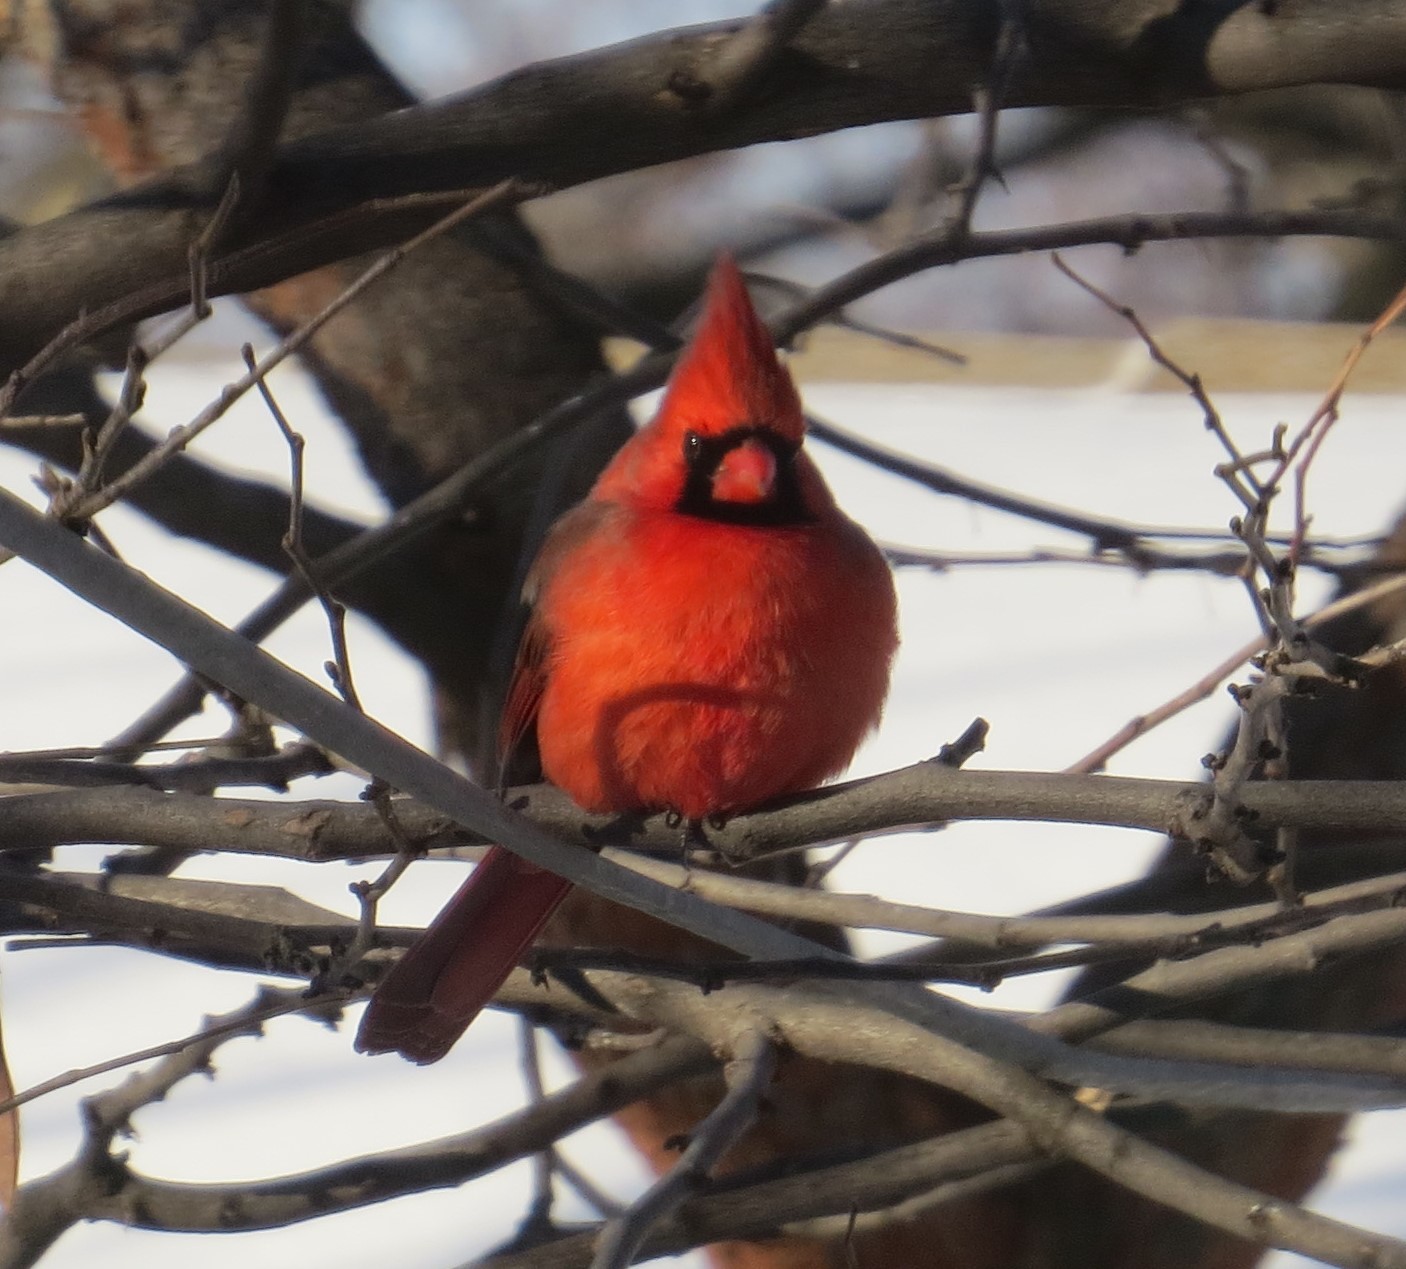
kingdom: Animalia
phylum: Chordata
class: Aves
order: Passeriformes
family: Cardinalidae
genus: Cardinalis
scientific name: Cardinalis cardinalis
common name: Northern cardinal
